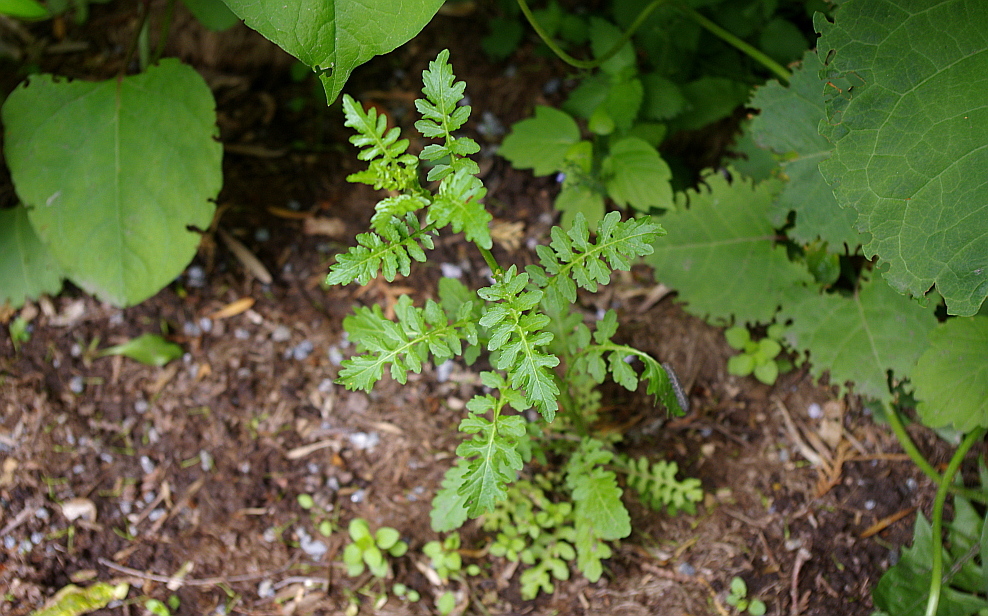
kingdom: Plantae
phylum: Tracheophyta
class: Magnoliopsida
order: Brassicales
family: Brassicaceae
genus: Rorippa
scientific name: Rorippa palustris
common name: Marsh yellow-cress
